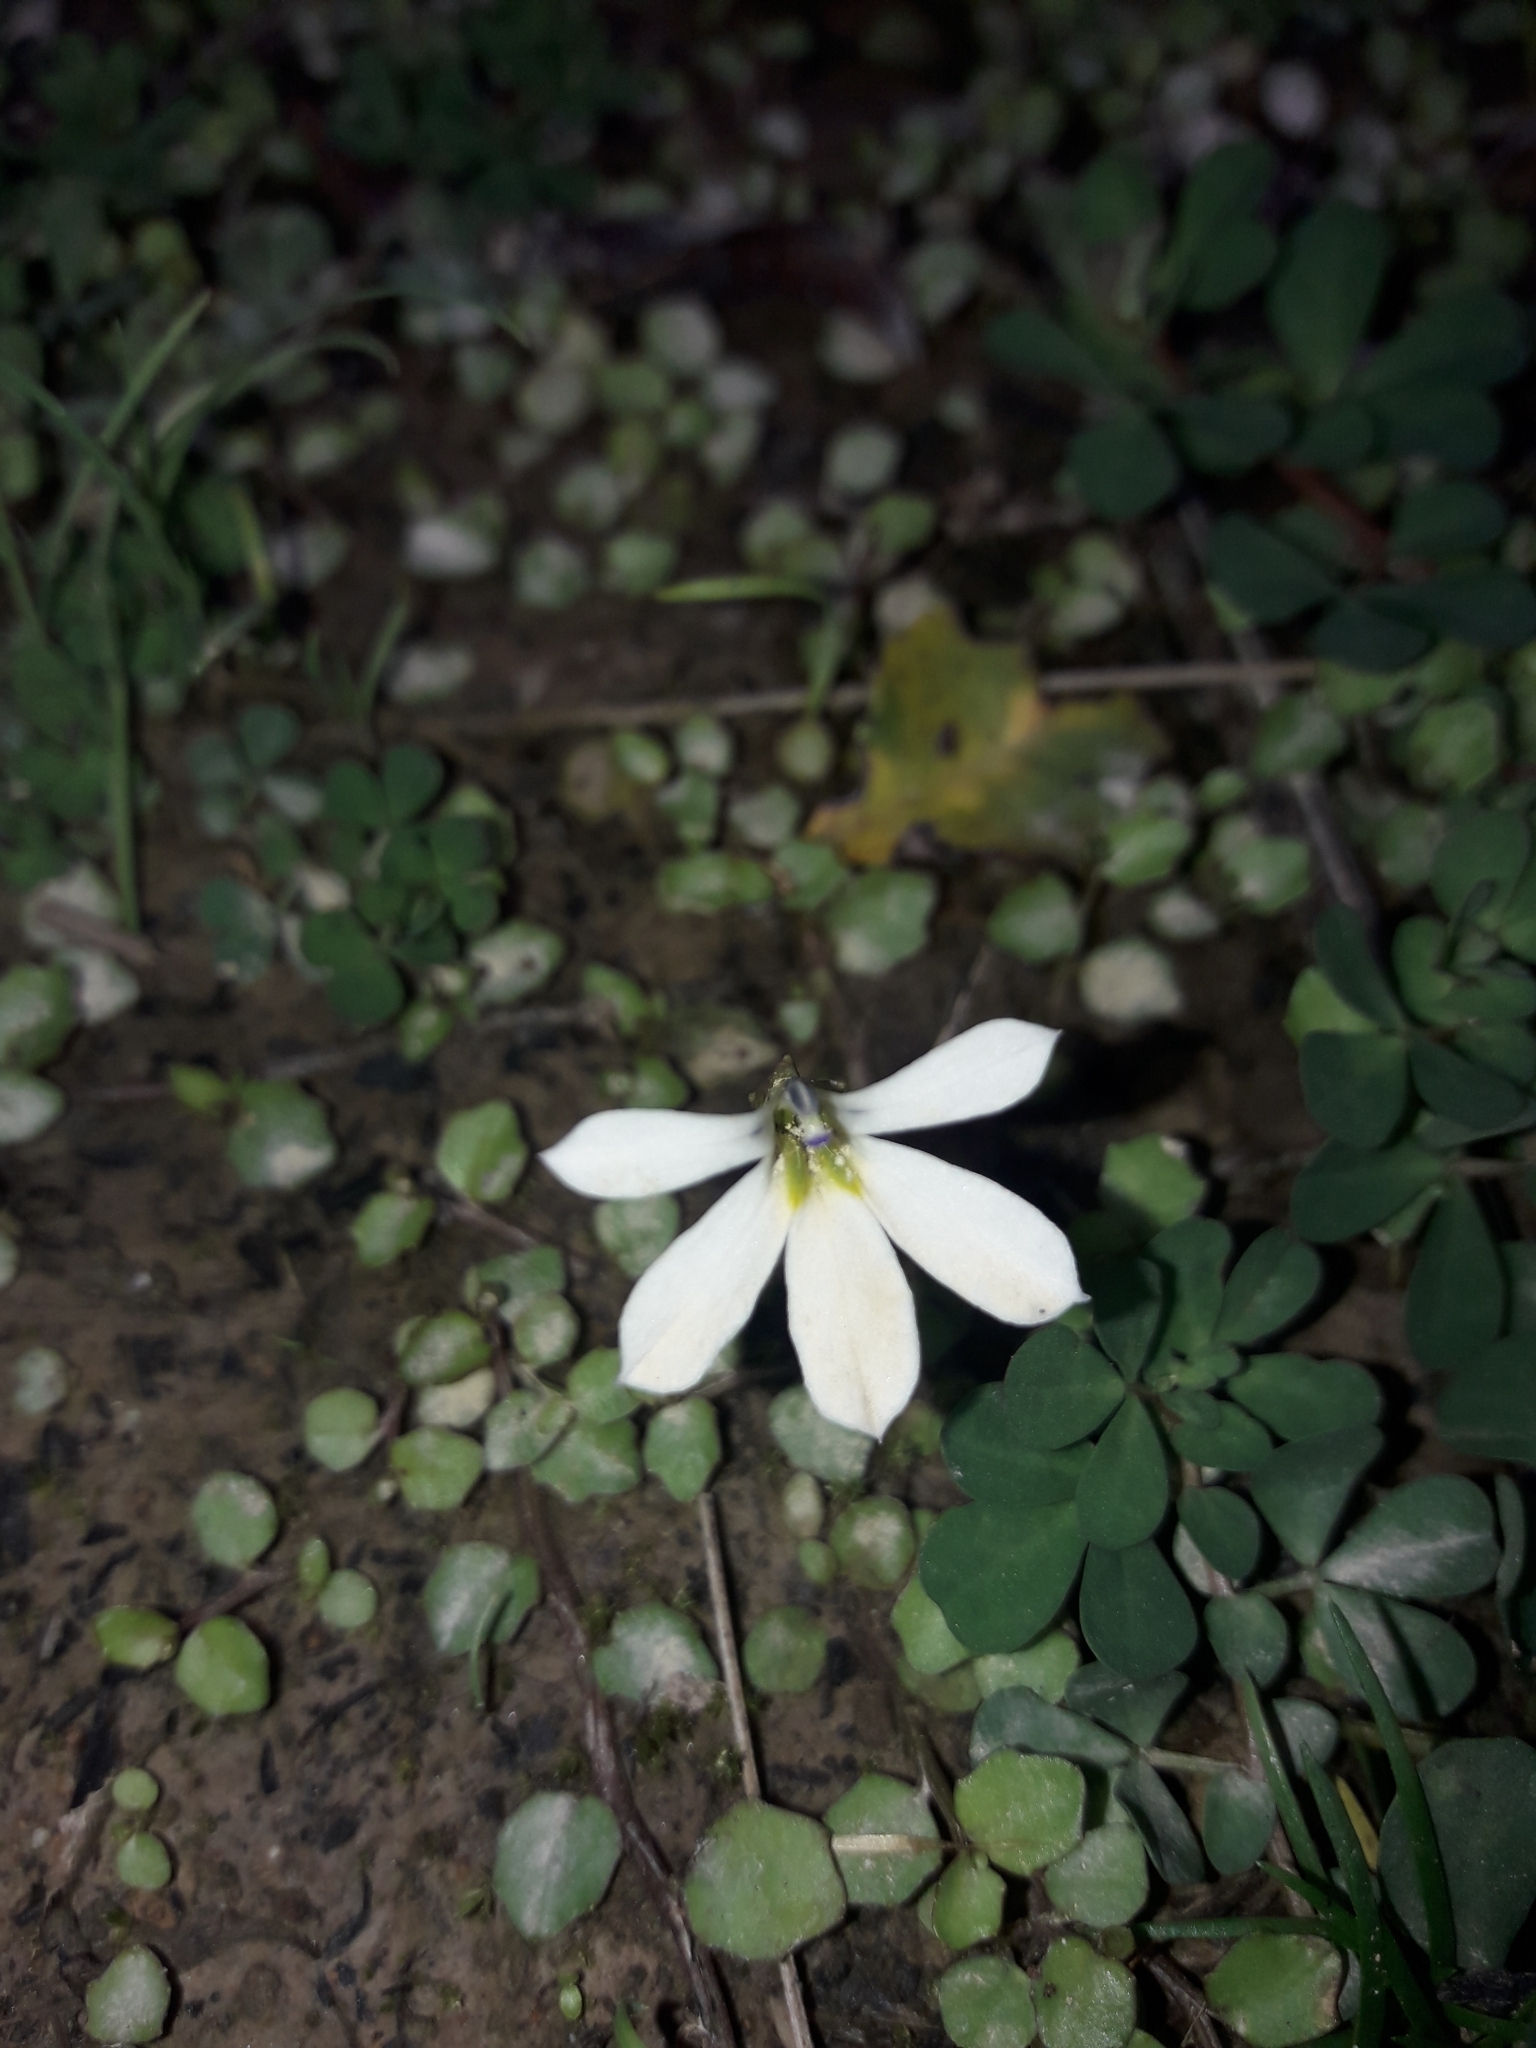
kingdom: Plantae
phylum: Tracheophyta
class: Magnoliopsida
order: Asterales
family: Campanulaceae
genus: Lobelia
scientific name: Lobelia angulata
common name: Lawn lobelia
